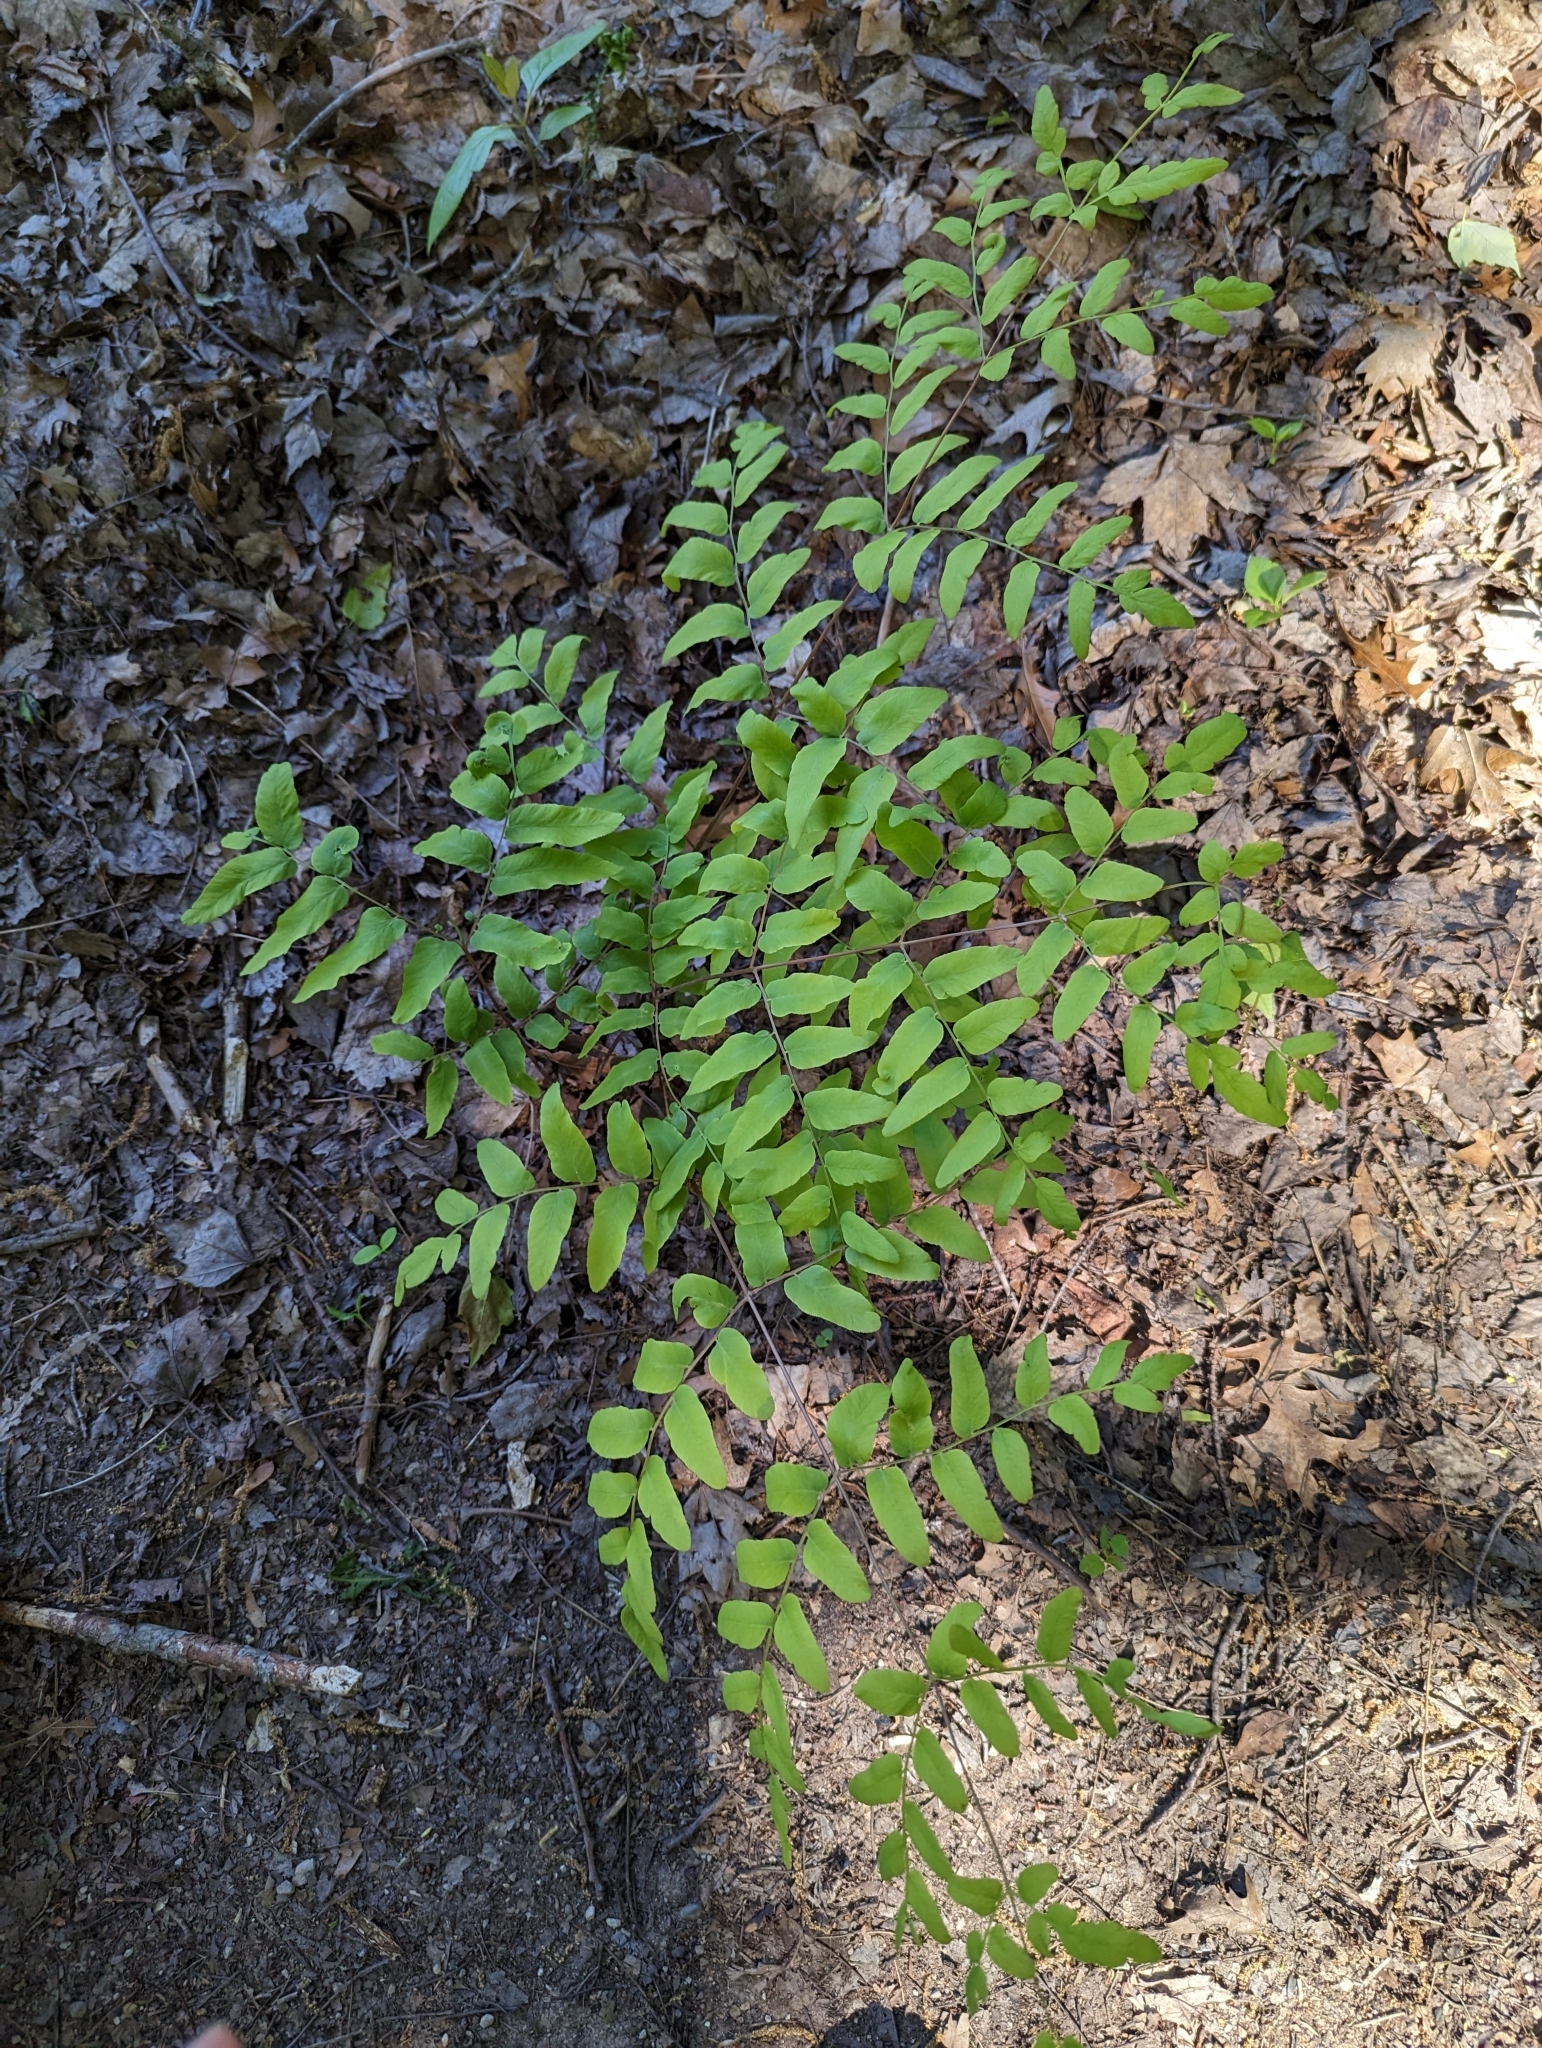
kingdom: Plantae
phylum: Tracheophyta
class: Polypodiopsida
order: Osmundales
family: Osmundaceae
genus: Osmunda
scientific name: Osmunda spectabilis
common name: American royal fern
